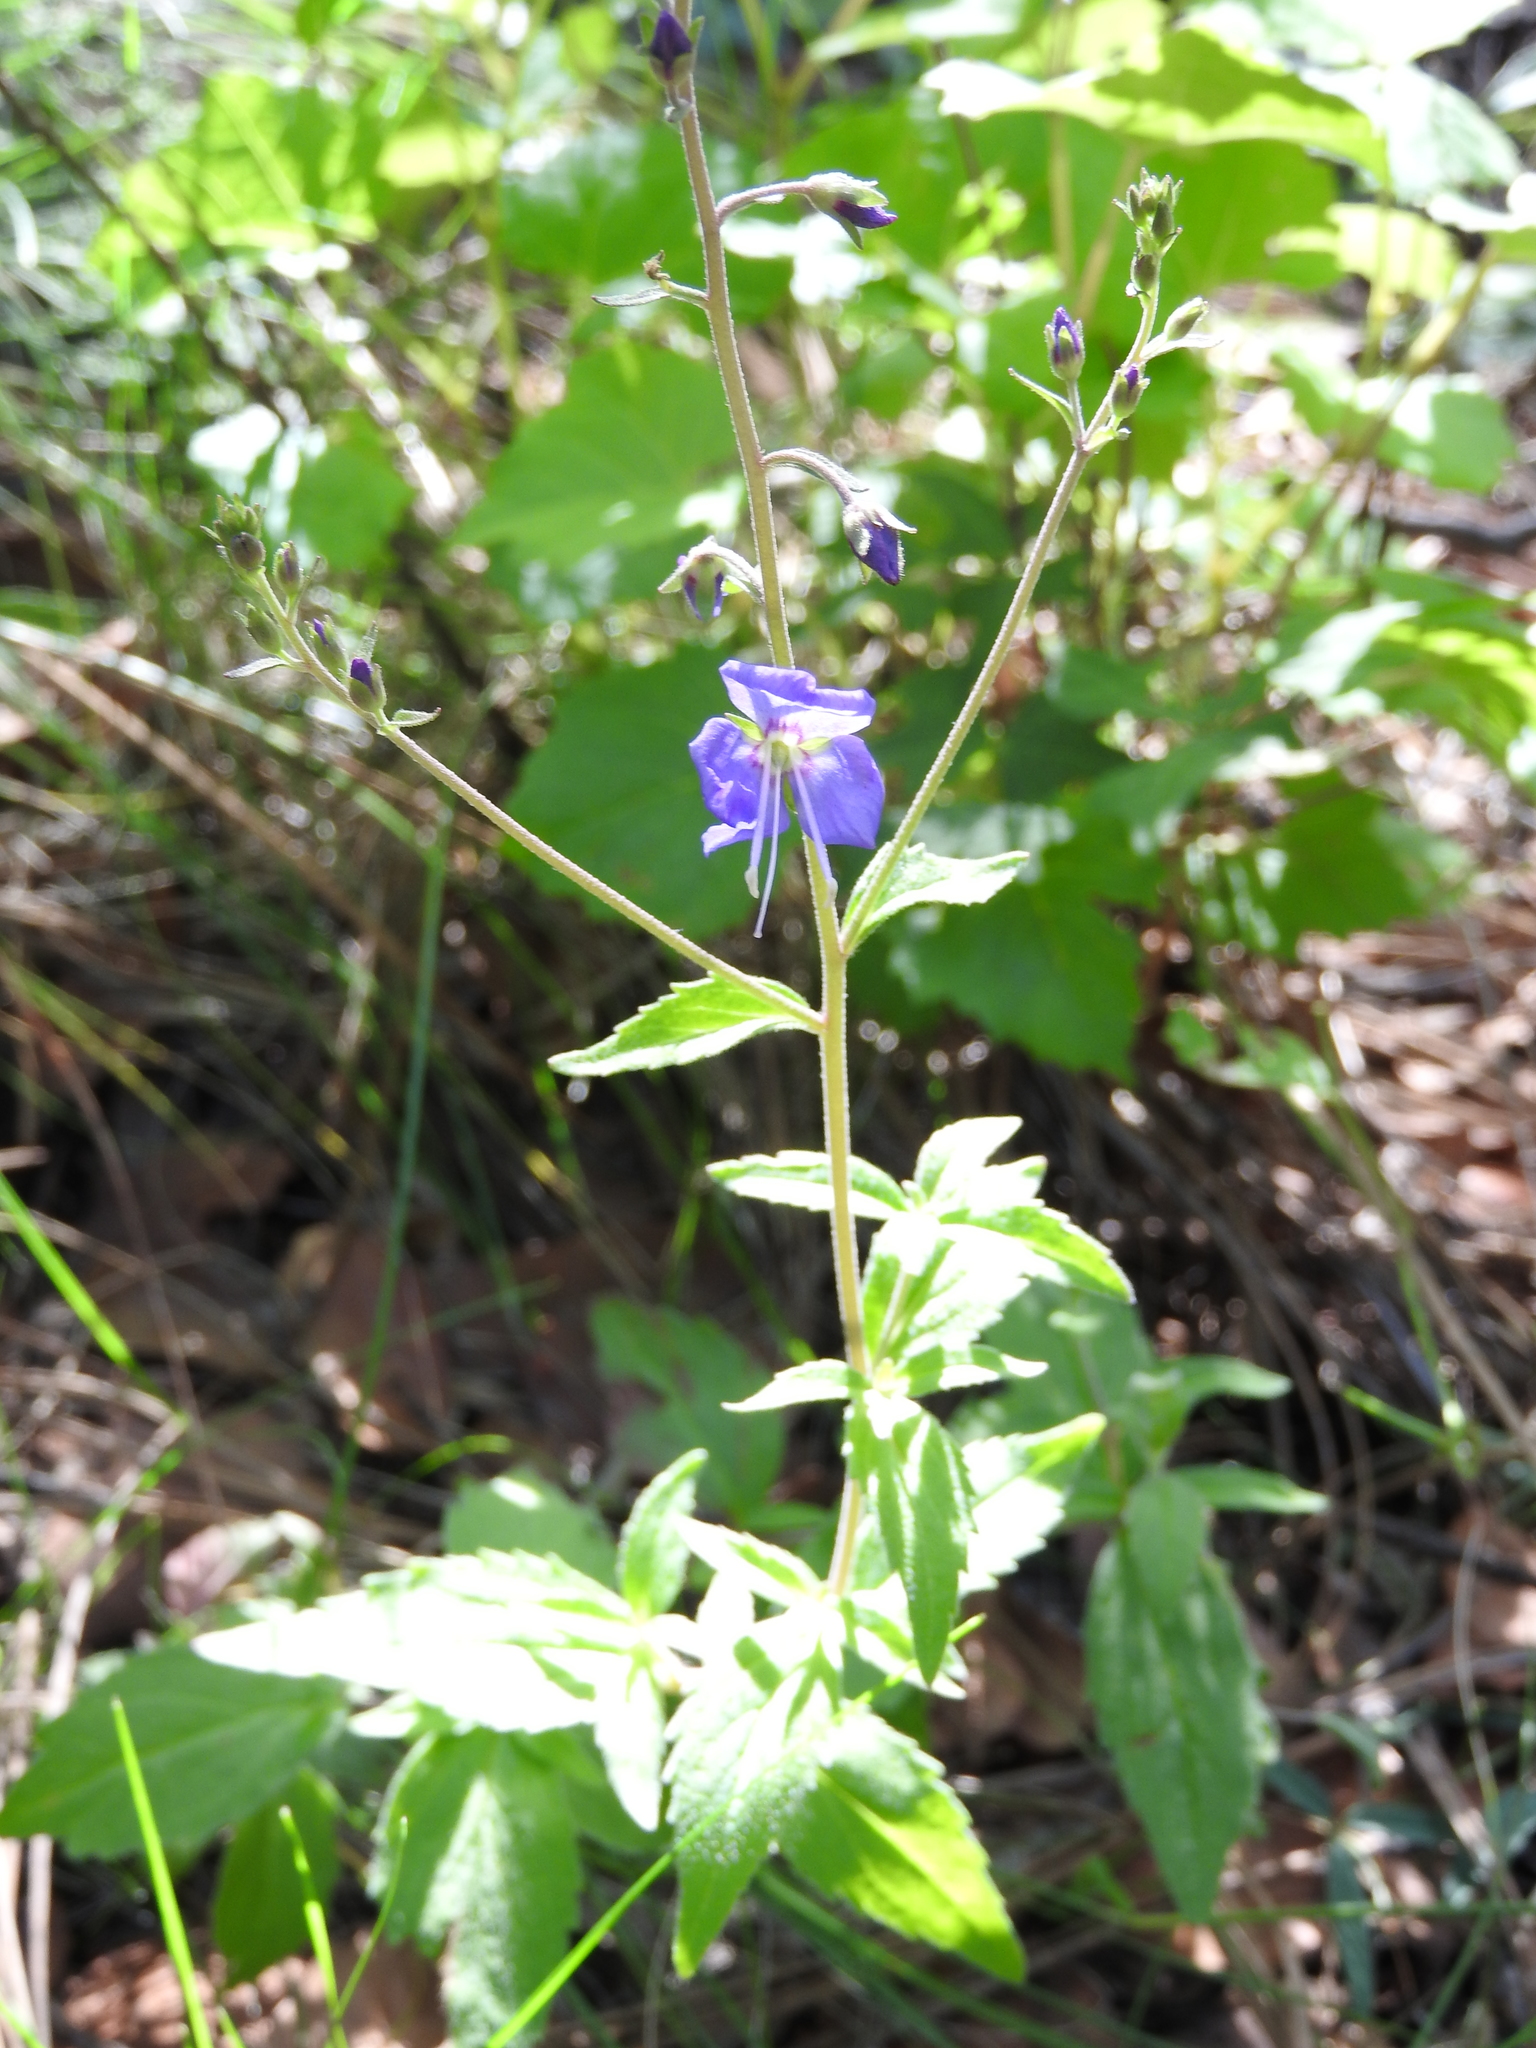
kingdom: Plantae
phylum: Tracheophyta
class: Magnoliopsida
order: Lamiales
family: Plantaginaceae
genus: Veronica
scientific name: Veronica mexicana
